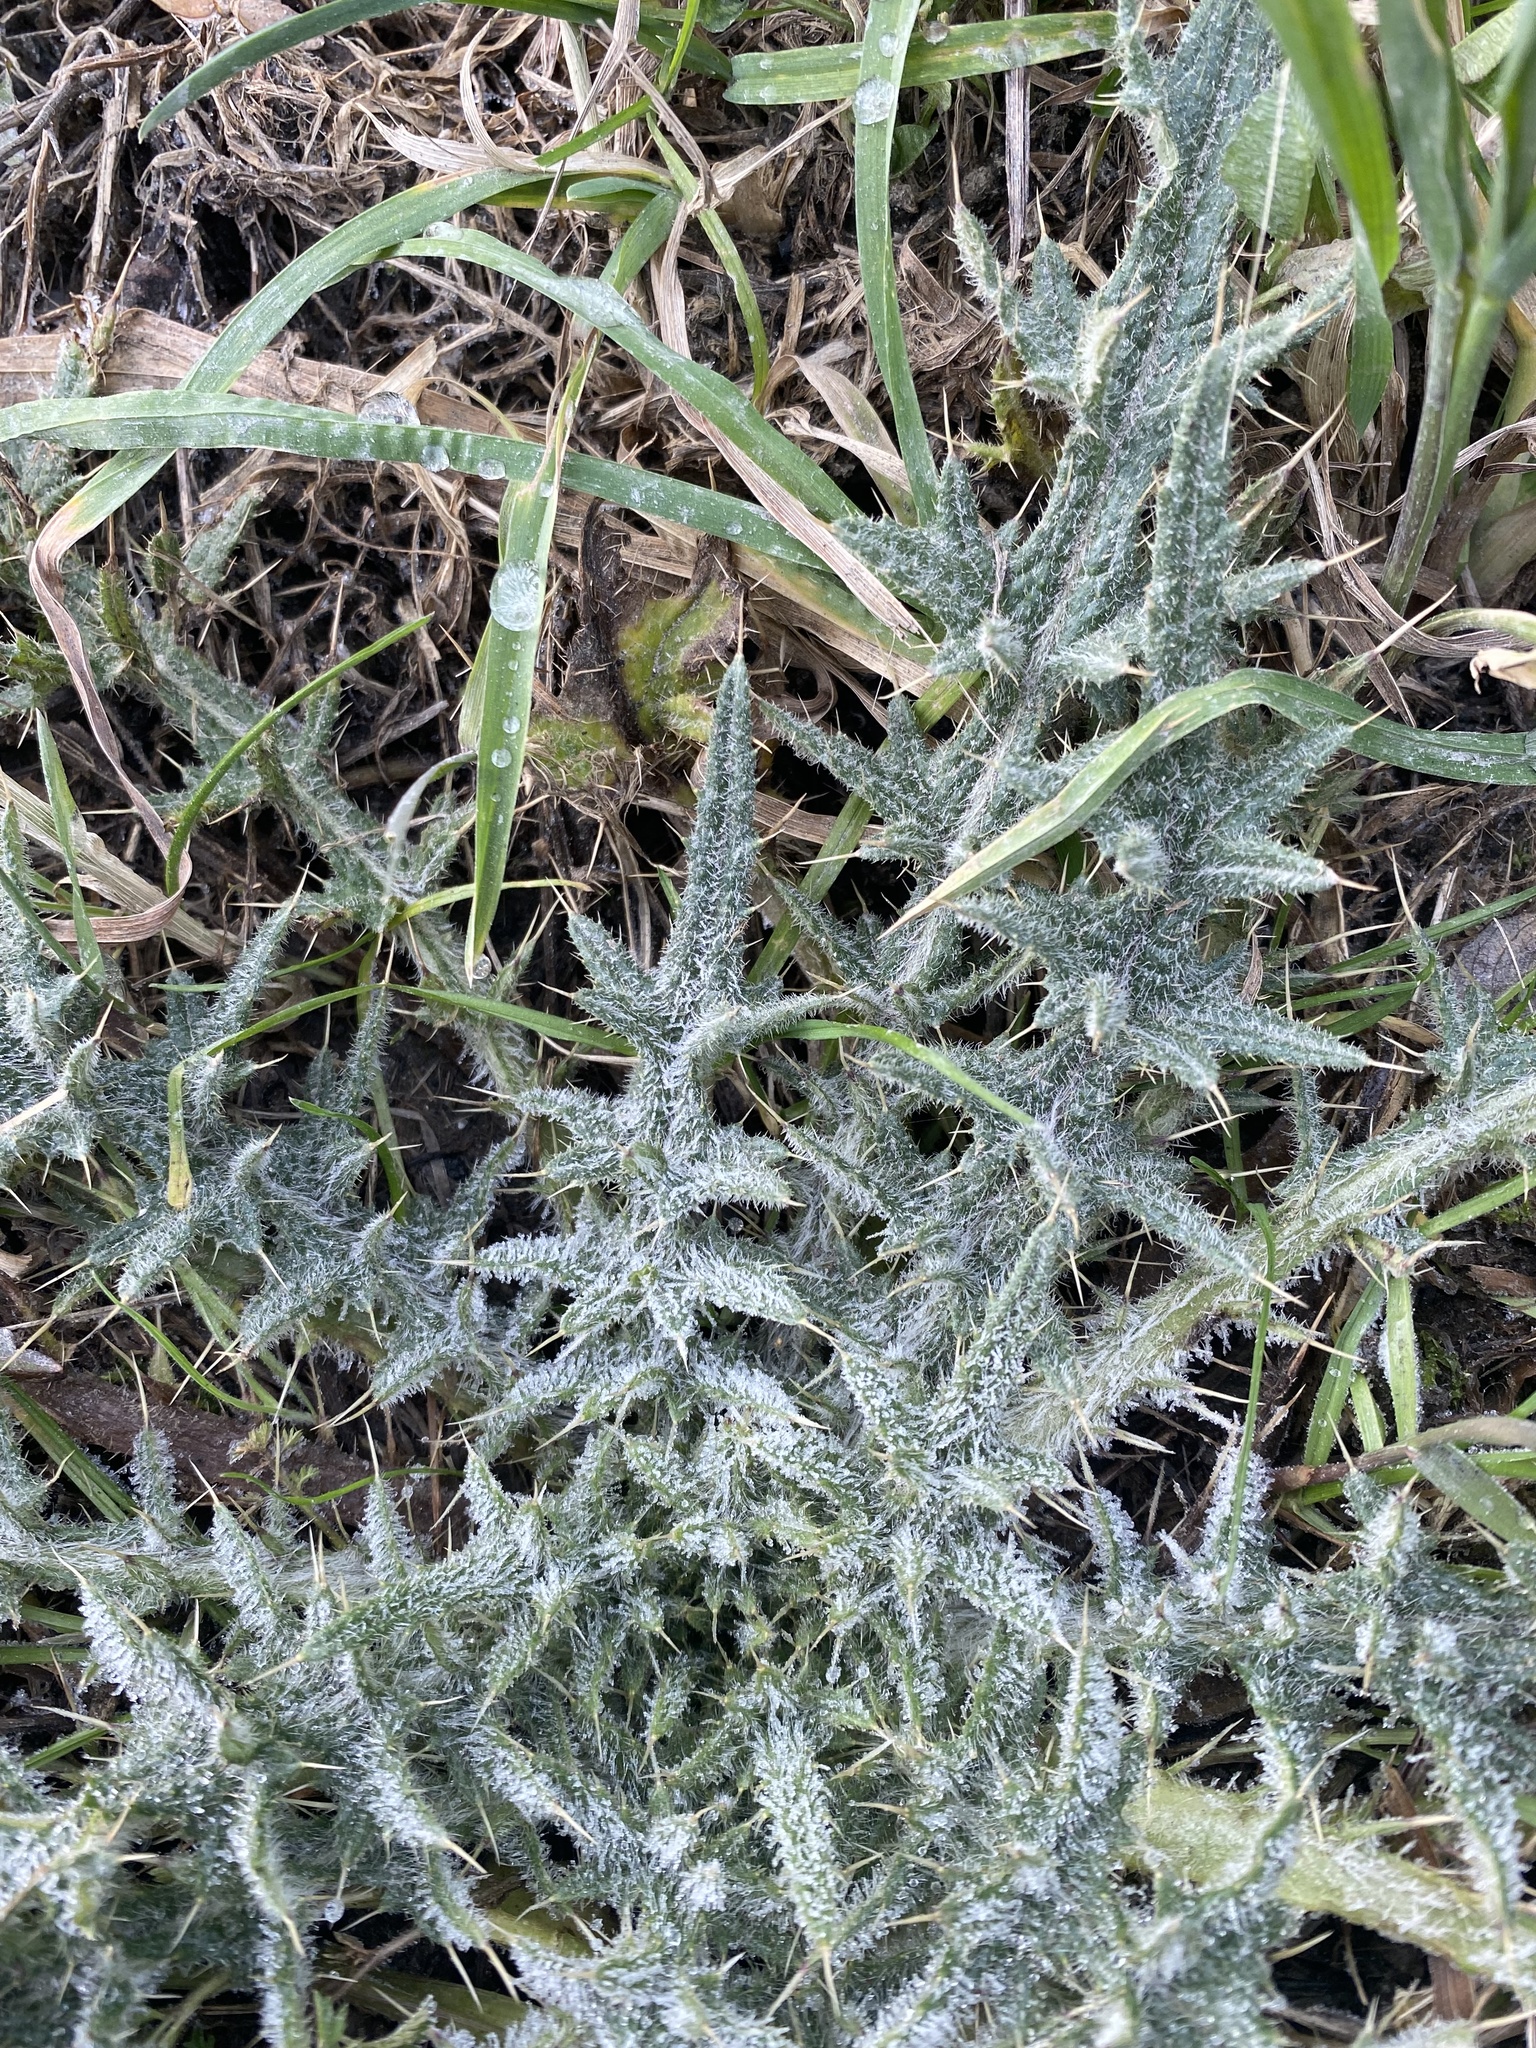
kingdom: Plantae
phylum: Tracheophyta
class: Magnoliopsida
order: Asterales
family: Asteraceae
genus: Cirsium
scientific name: Cirsium vulgare
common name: Bull thistle
